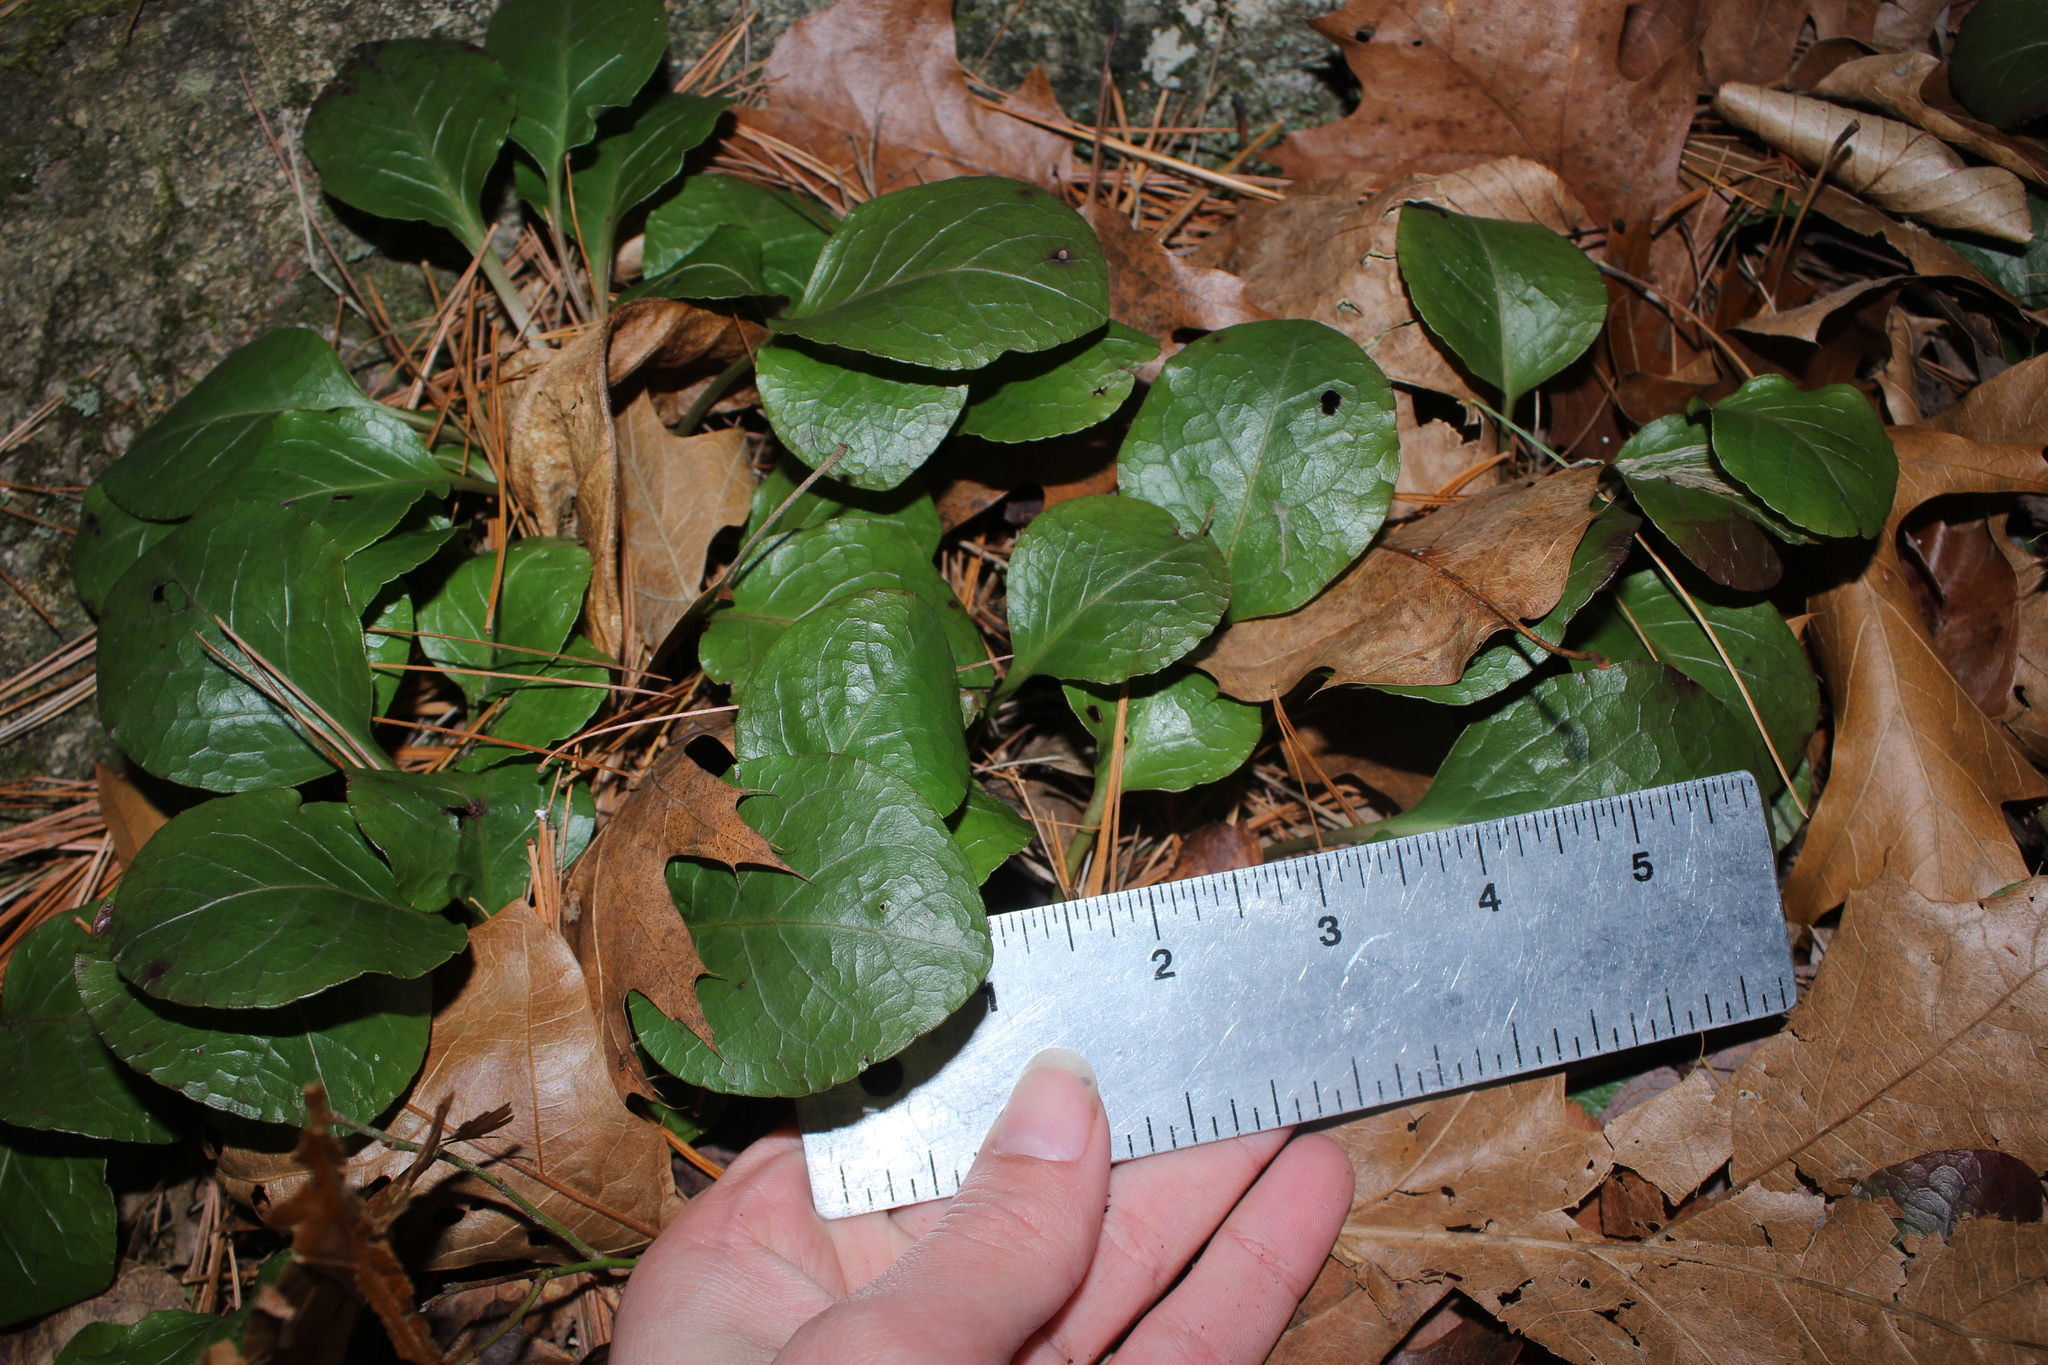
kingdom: Plantae
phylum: Tracheophyta
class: Magnoliopsida
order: Ericales
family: Ericaceae
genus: Pyrola
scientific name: Pyrola americana
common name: American wintergreen
